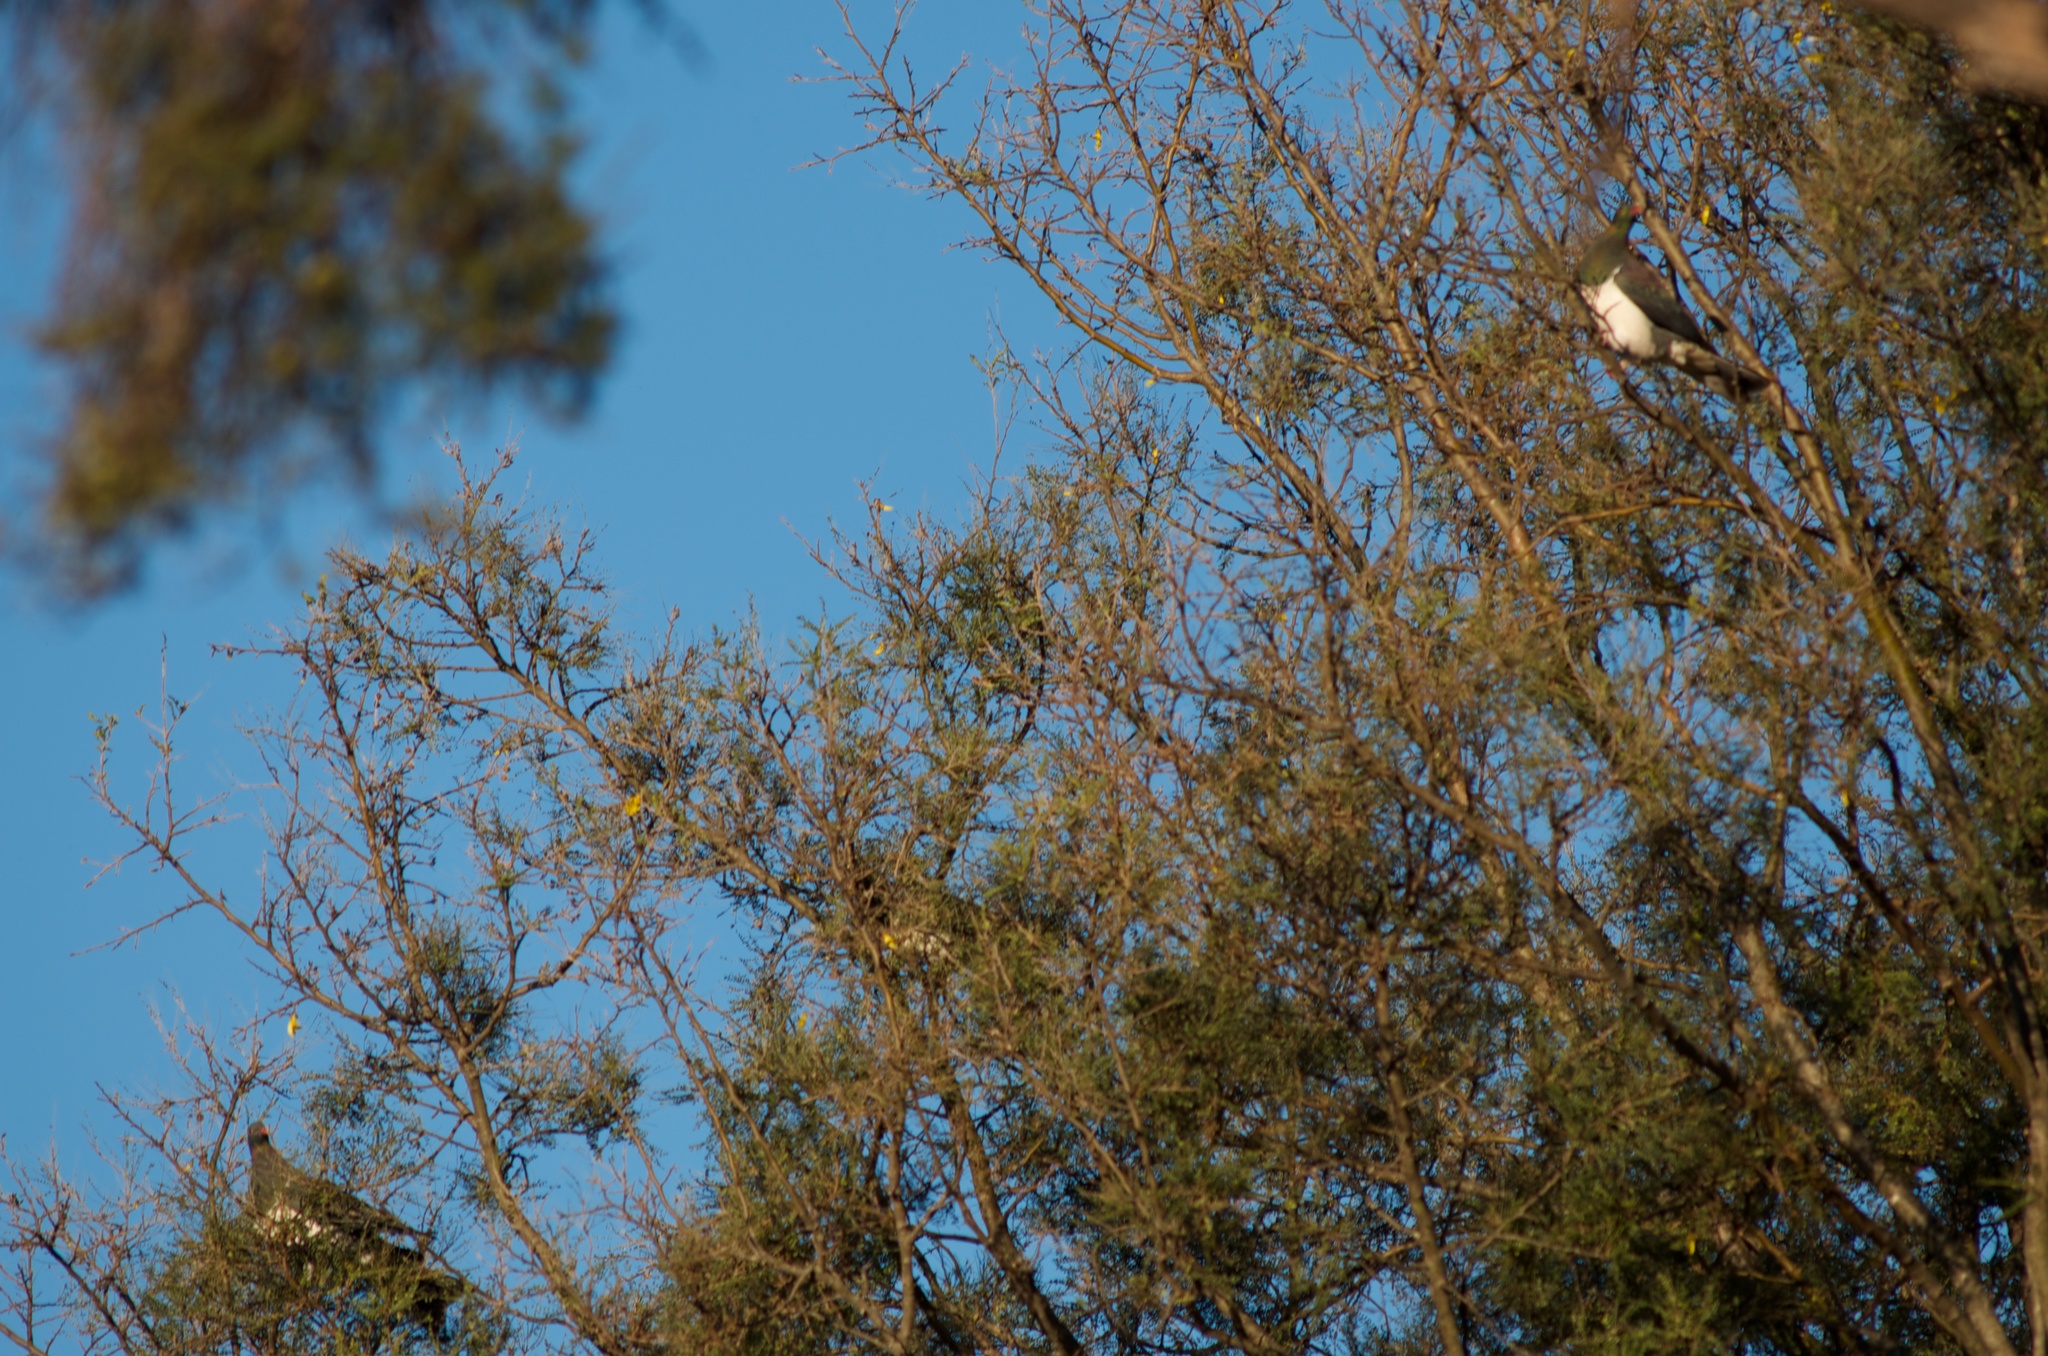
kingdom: Animalia
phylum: Chordata
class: Aves
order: Columbiformes
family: Columbidae
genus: Hemiphaga
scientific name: Hemiphaga novaeseelandiae
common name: New zealand pigeon
